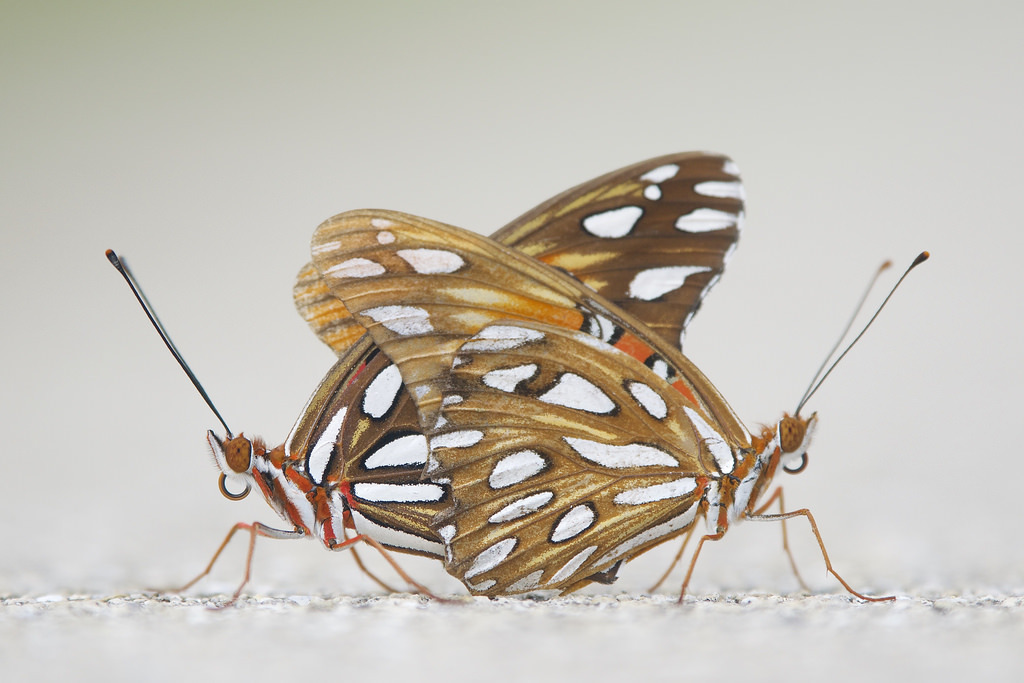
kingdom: Animalia
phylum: Arthropoda
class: Insecta
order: Lepidoptera
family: Nymphalidae
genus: Dione
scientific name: Dione vanillae
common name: Gulf fritillary
